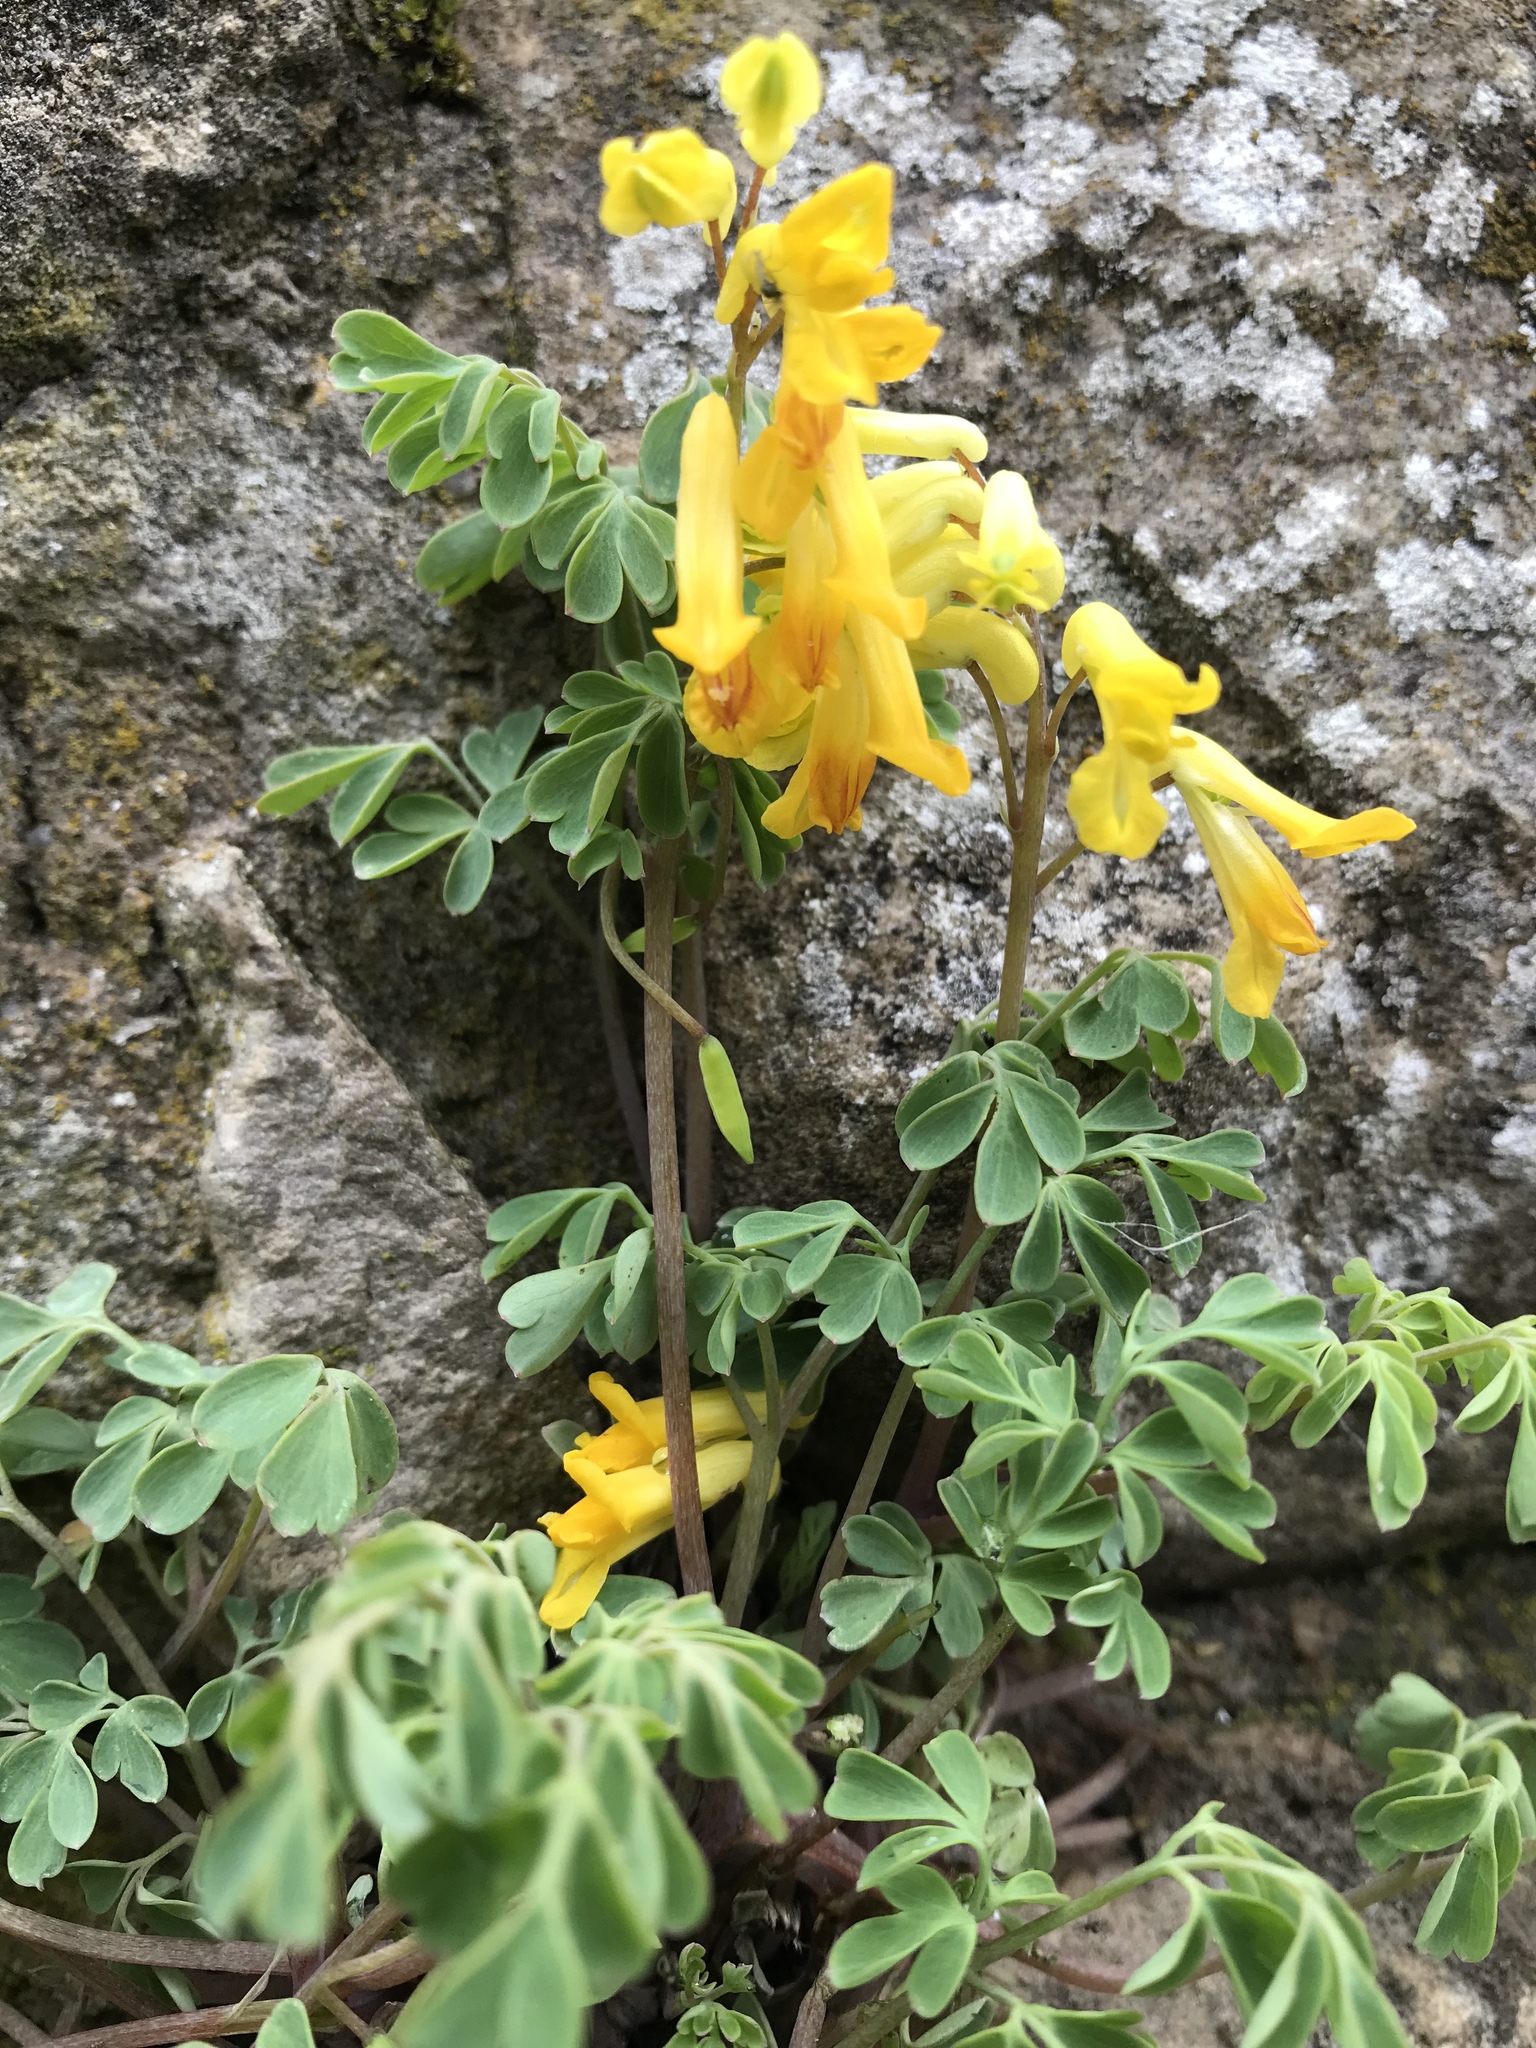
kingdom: Plantae
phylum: Tracheophyta
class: Magnoliopsida
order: Ranunculales
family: Papaveraceae
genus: Pseudofumaria
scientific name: Pseudofumaria lutea
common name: Yellow corydalis
